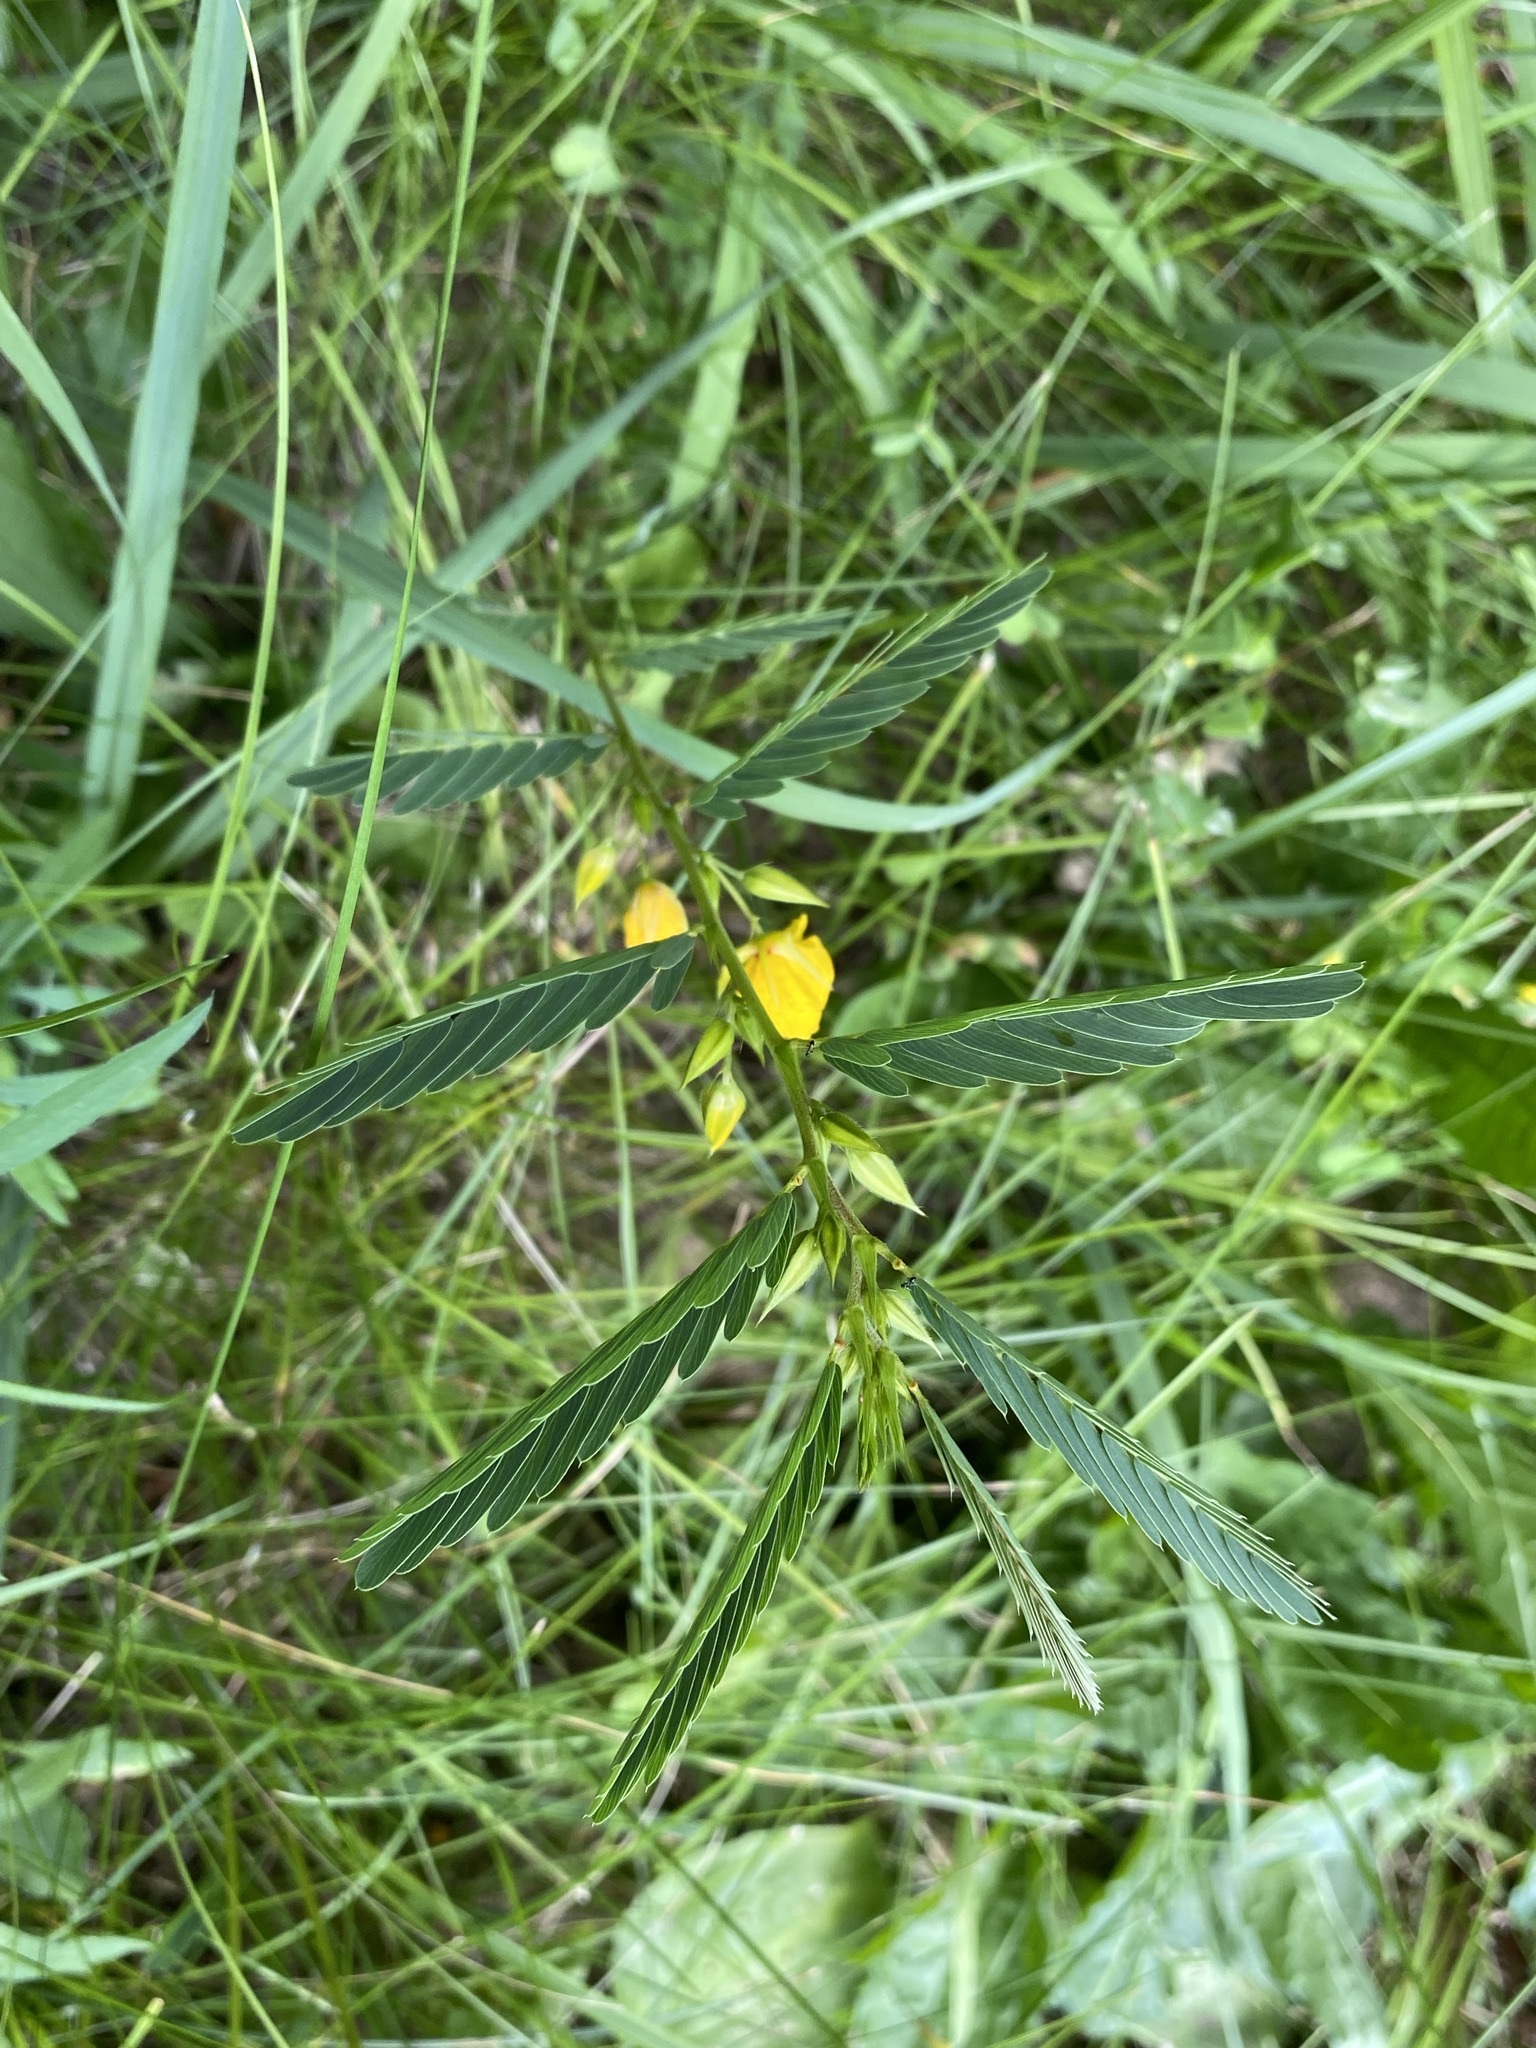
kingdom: Plantae
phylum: Tracheophyta
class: Magnoliopsida
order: Fabales
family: Fabaceae
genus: Chamaecrista
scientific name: Chamaecrista fasciculata
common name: Golden cassia
